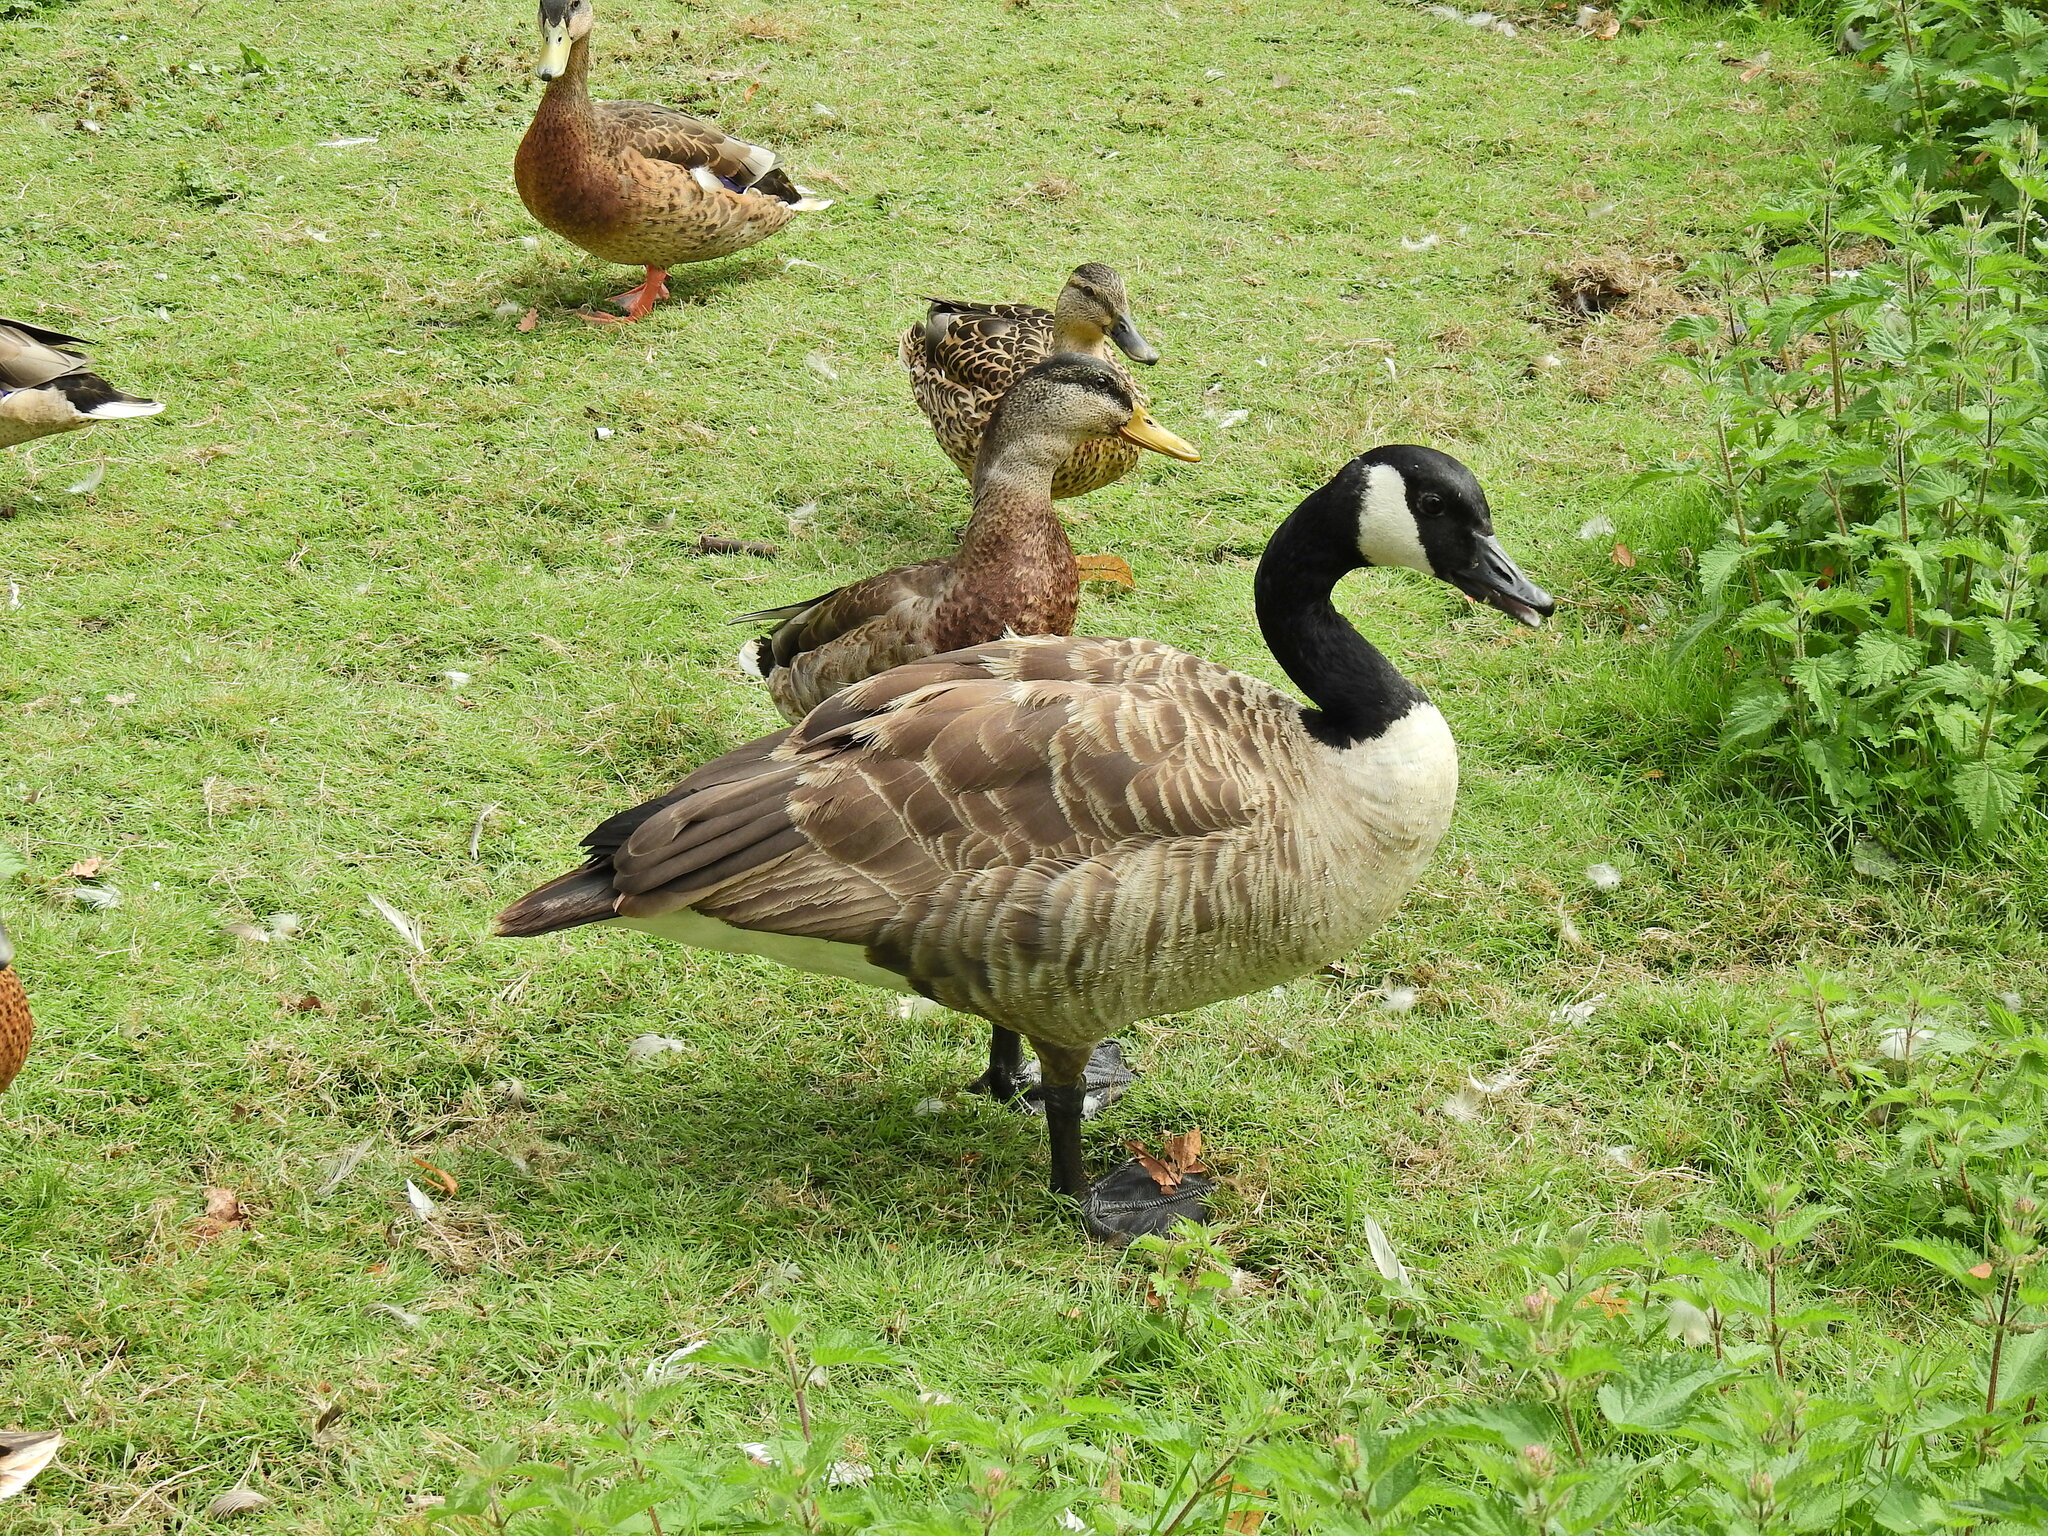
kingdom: Animalia
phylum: Chordata
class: Aves
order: Anseriformes
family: Anatidae
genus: Branta
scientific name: Branta canadensis
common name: Canada goose
